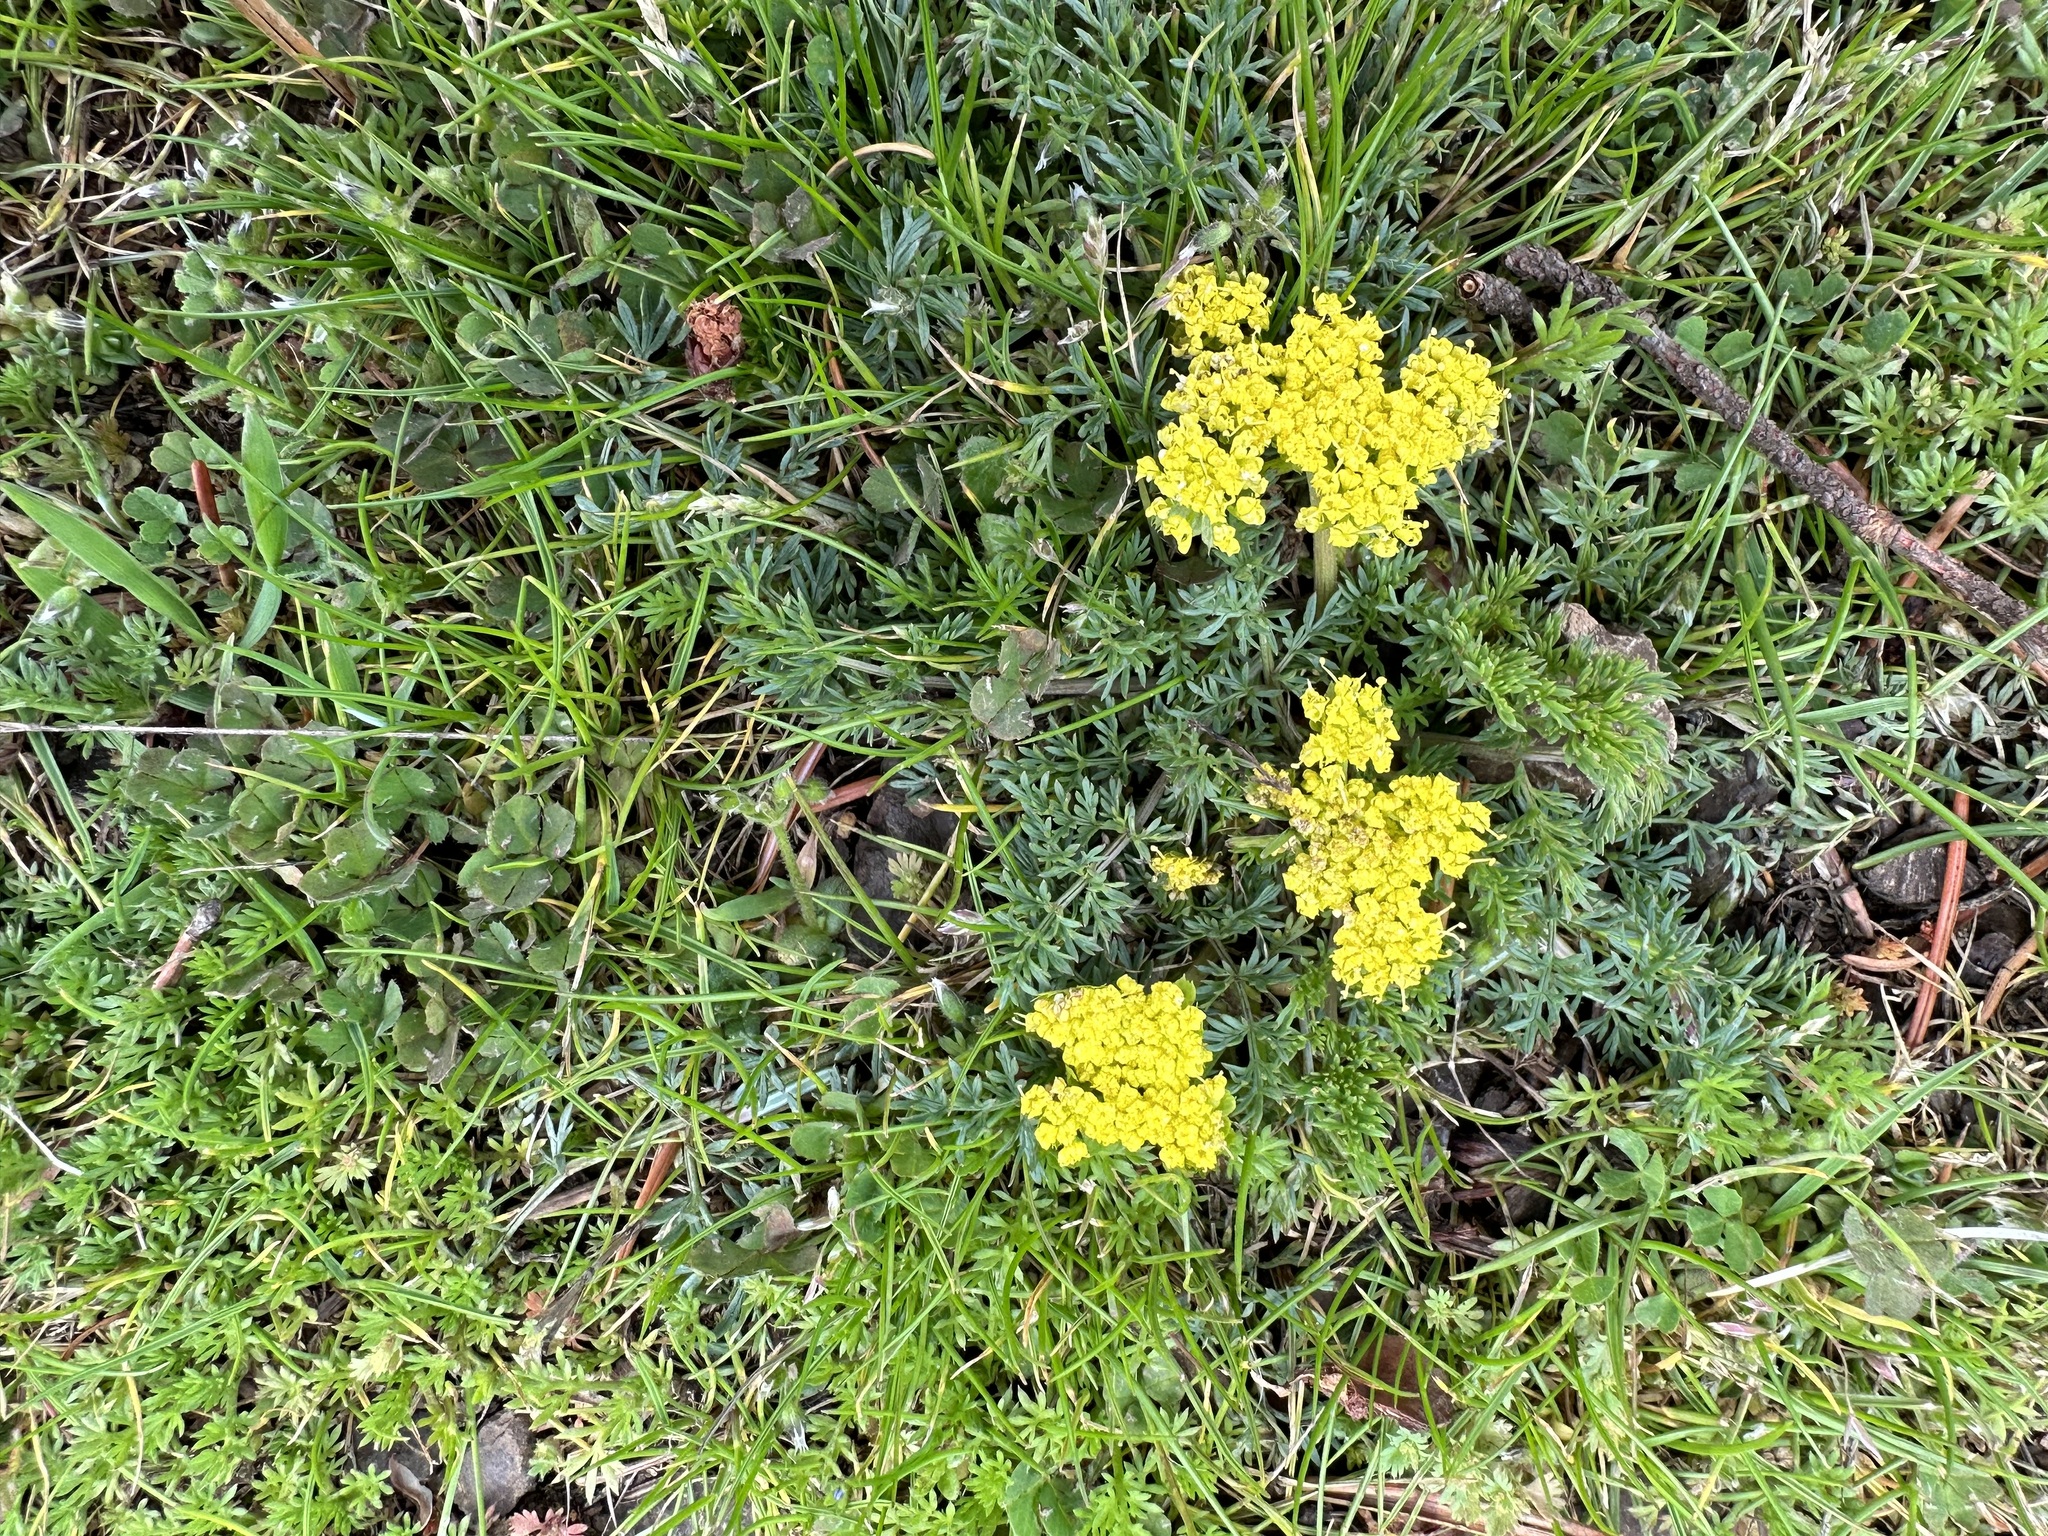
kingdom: Plantae
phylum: Tracheophyta
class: Magnoliopsida
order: Apiales
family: Apiaceae
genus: Lomatium
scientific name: Lomatium utriculatum
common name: Fine-leaf desert-parsley
